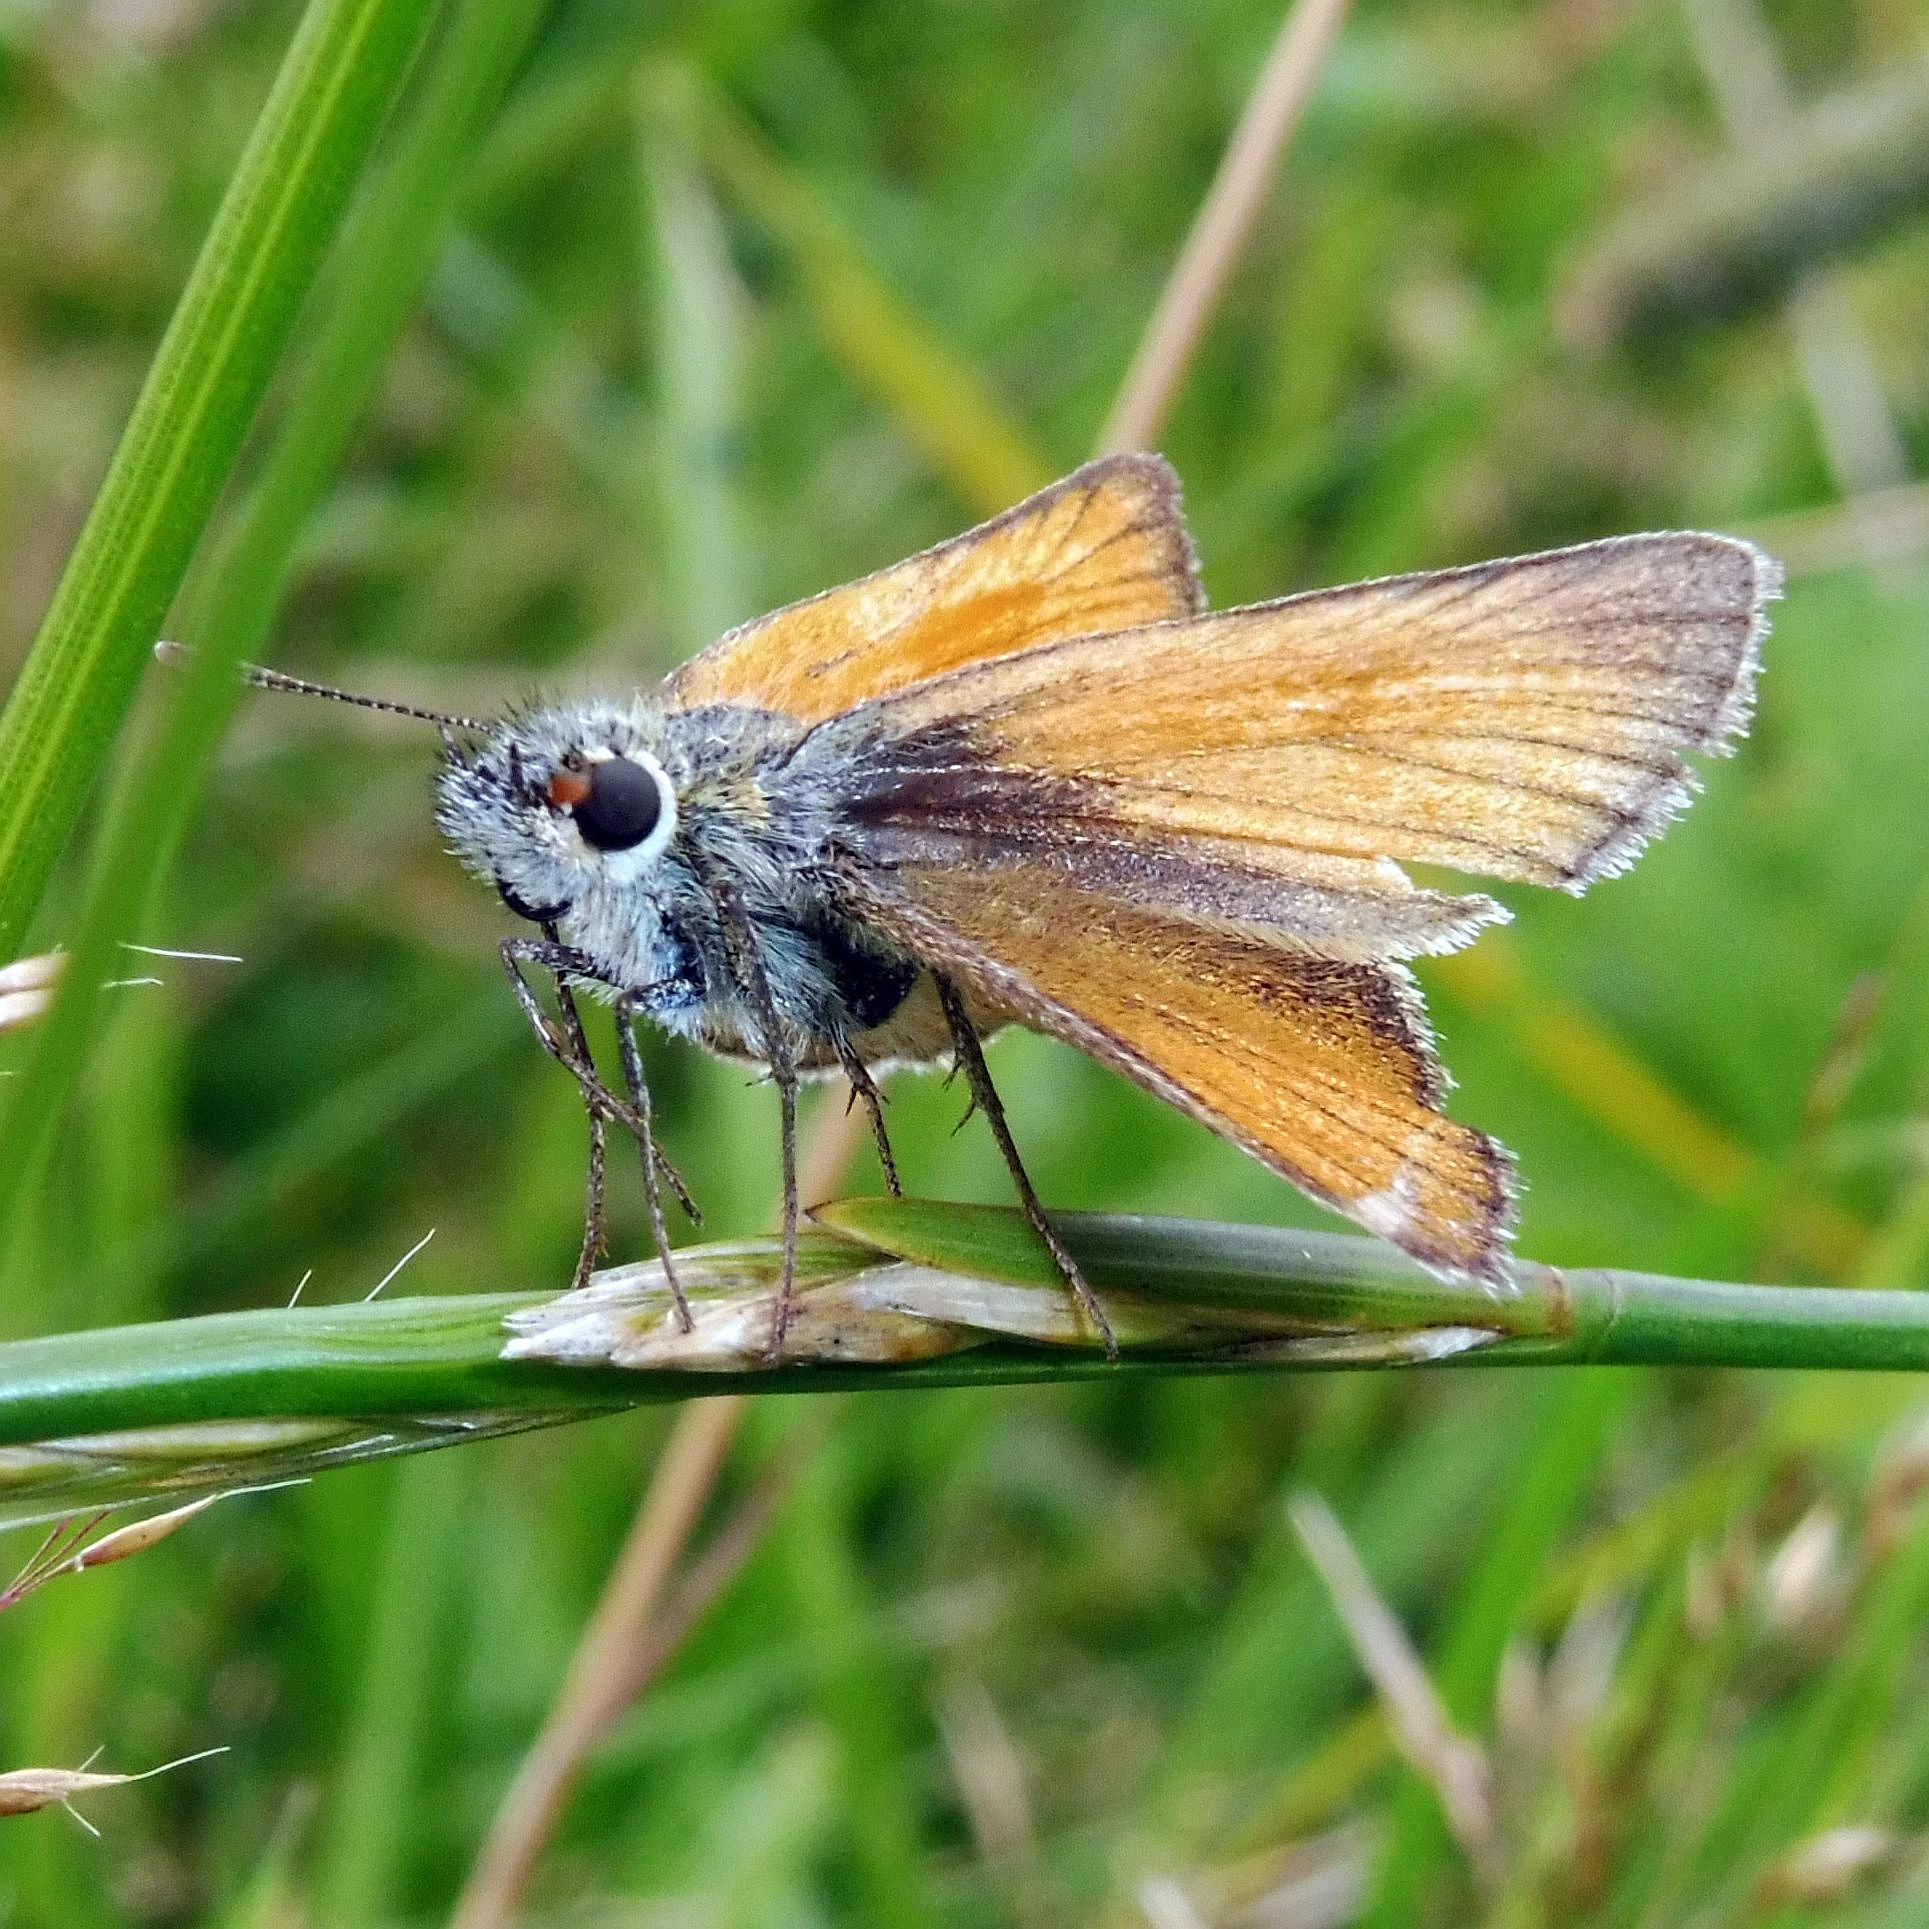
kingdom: Animalia
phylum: Arthropoda
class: Insecta
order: Lepidoptera
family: Hesperiidae
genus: Thymelicus
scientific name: Thymelicus sylvestris
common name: Small skipper
